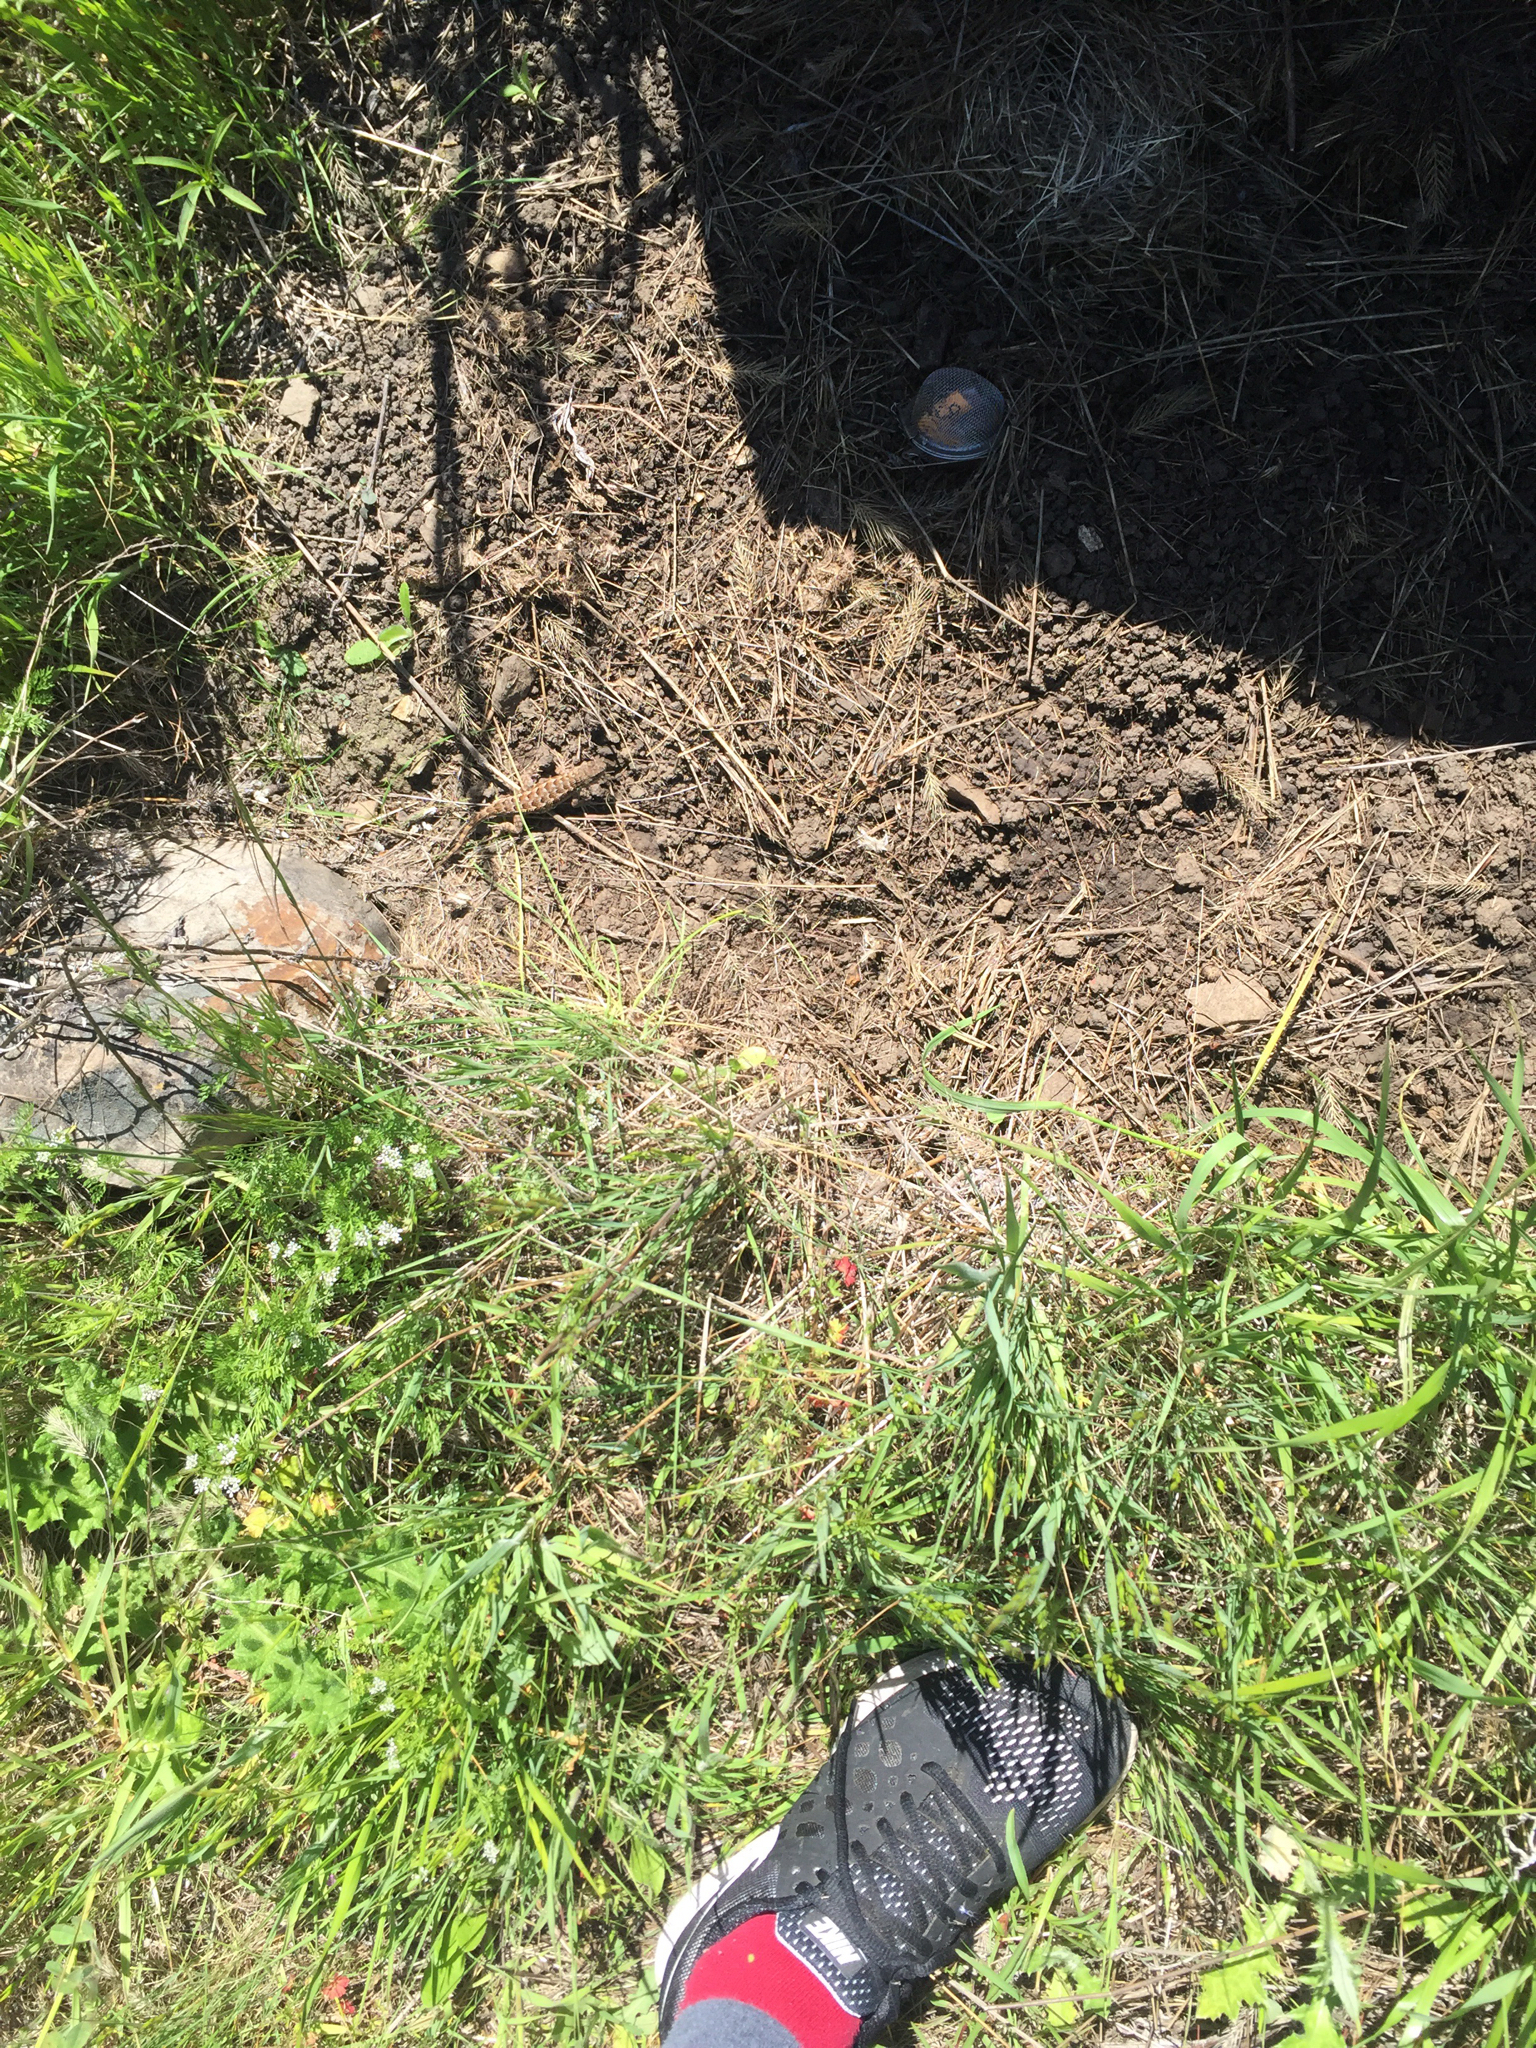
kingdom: Animalia
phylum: Chordata
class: Squamata
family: Phrynosomatidae
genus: Sceloporus
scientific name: Sceloporus occidentalis
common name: Western fence lizard
